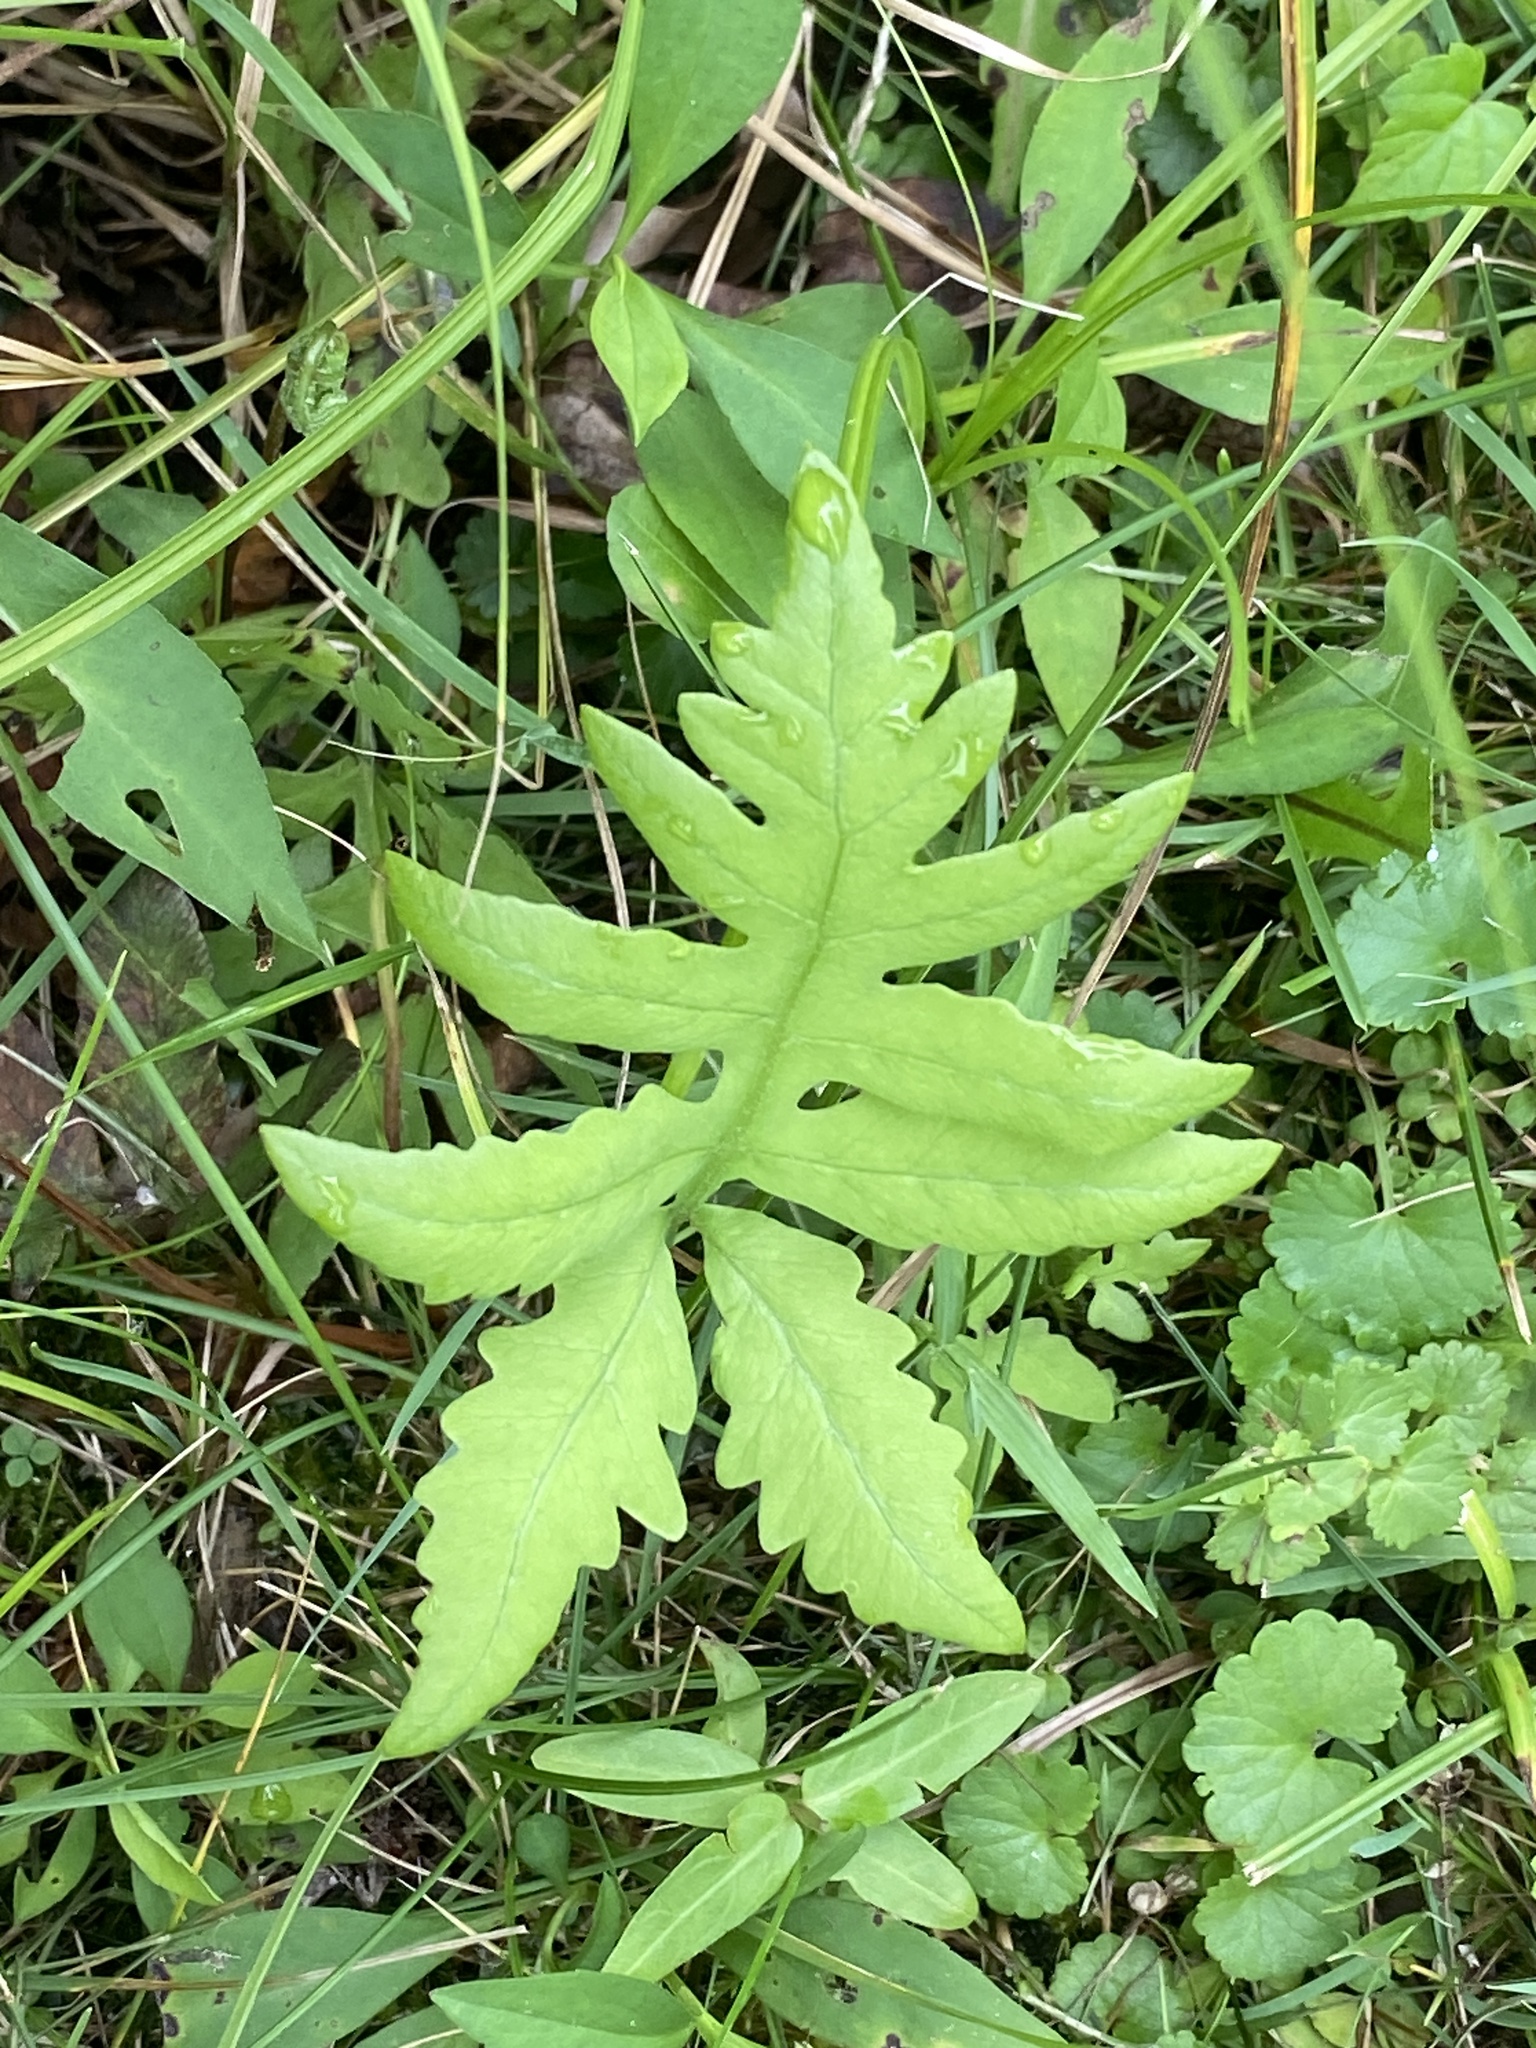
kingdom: Plantae
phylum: Tracheophyta
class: Polypodiopsida
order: Polypodiales
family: Onocleaceae
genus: Onoclea
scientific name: Onoclea sensibilis
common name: Sensitive fern
